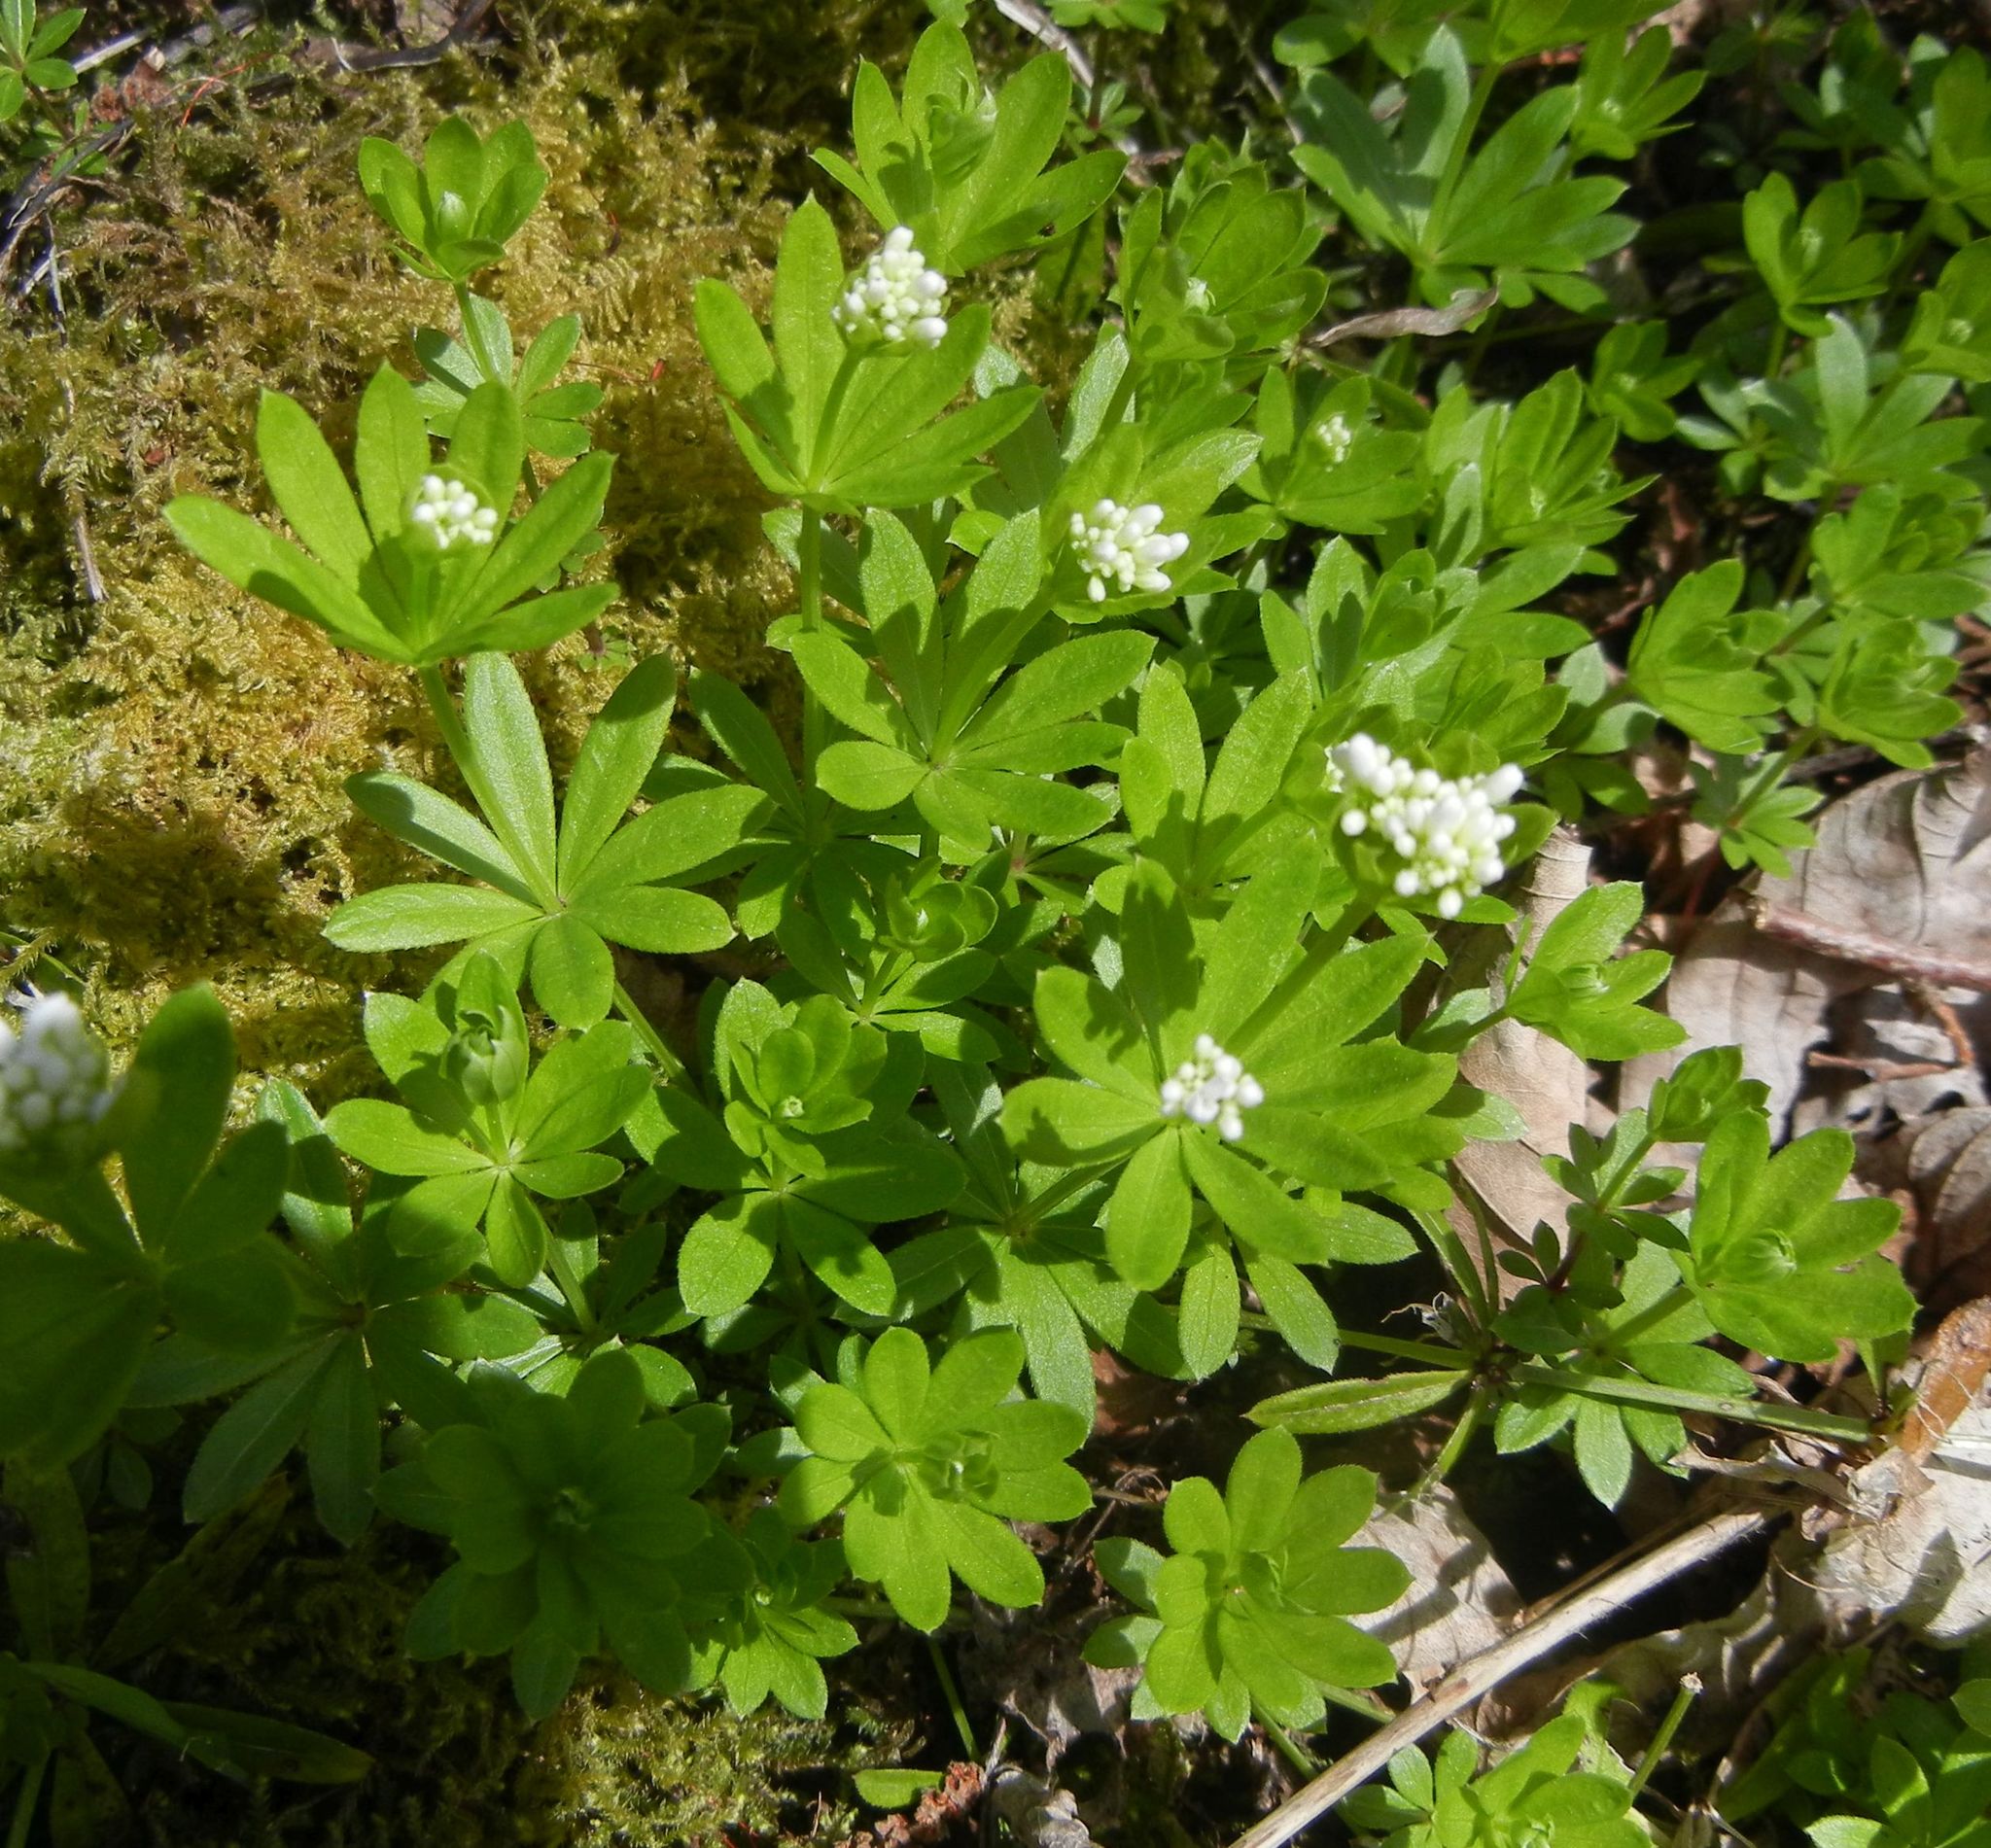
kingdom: Plantae
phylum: Tracheophyta
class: Magnoliopsida
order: Gentianales
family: Rubiaceae
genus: Galium
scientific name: Galium odoratum
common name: Sweet woodruff
